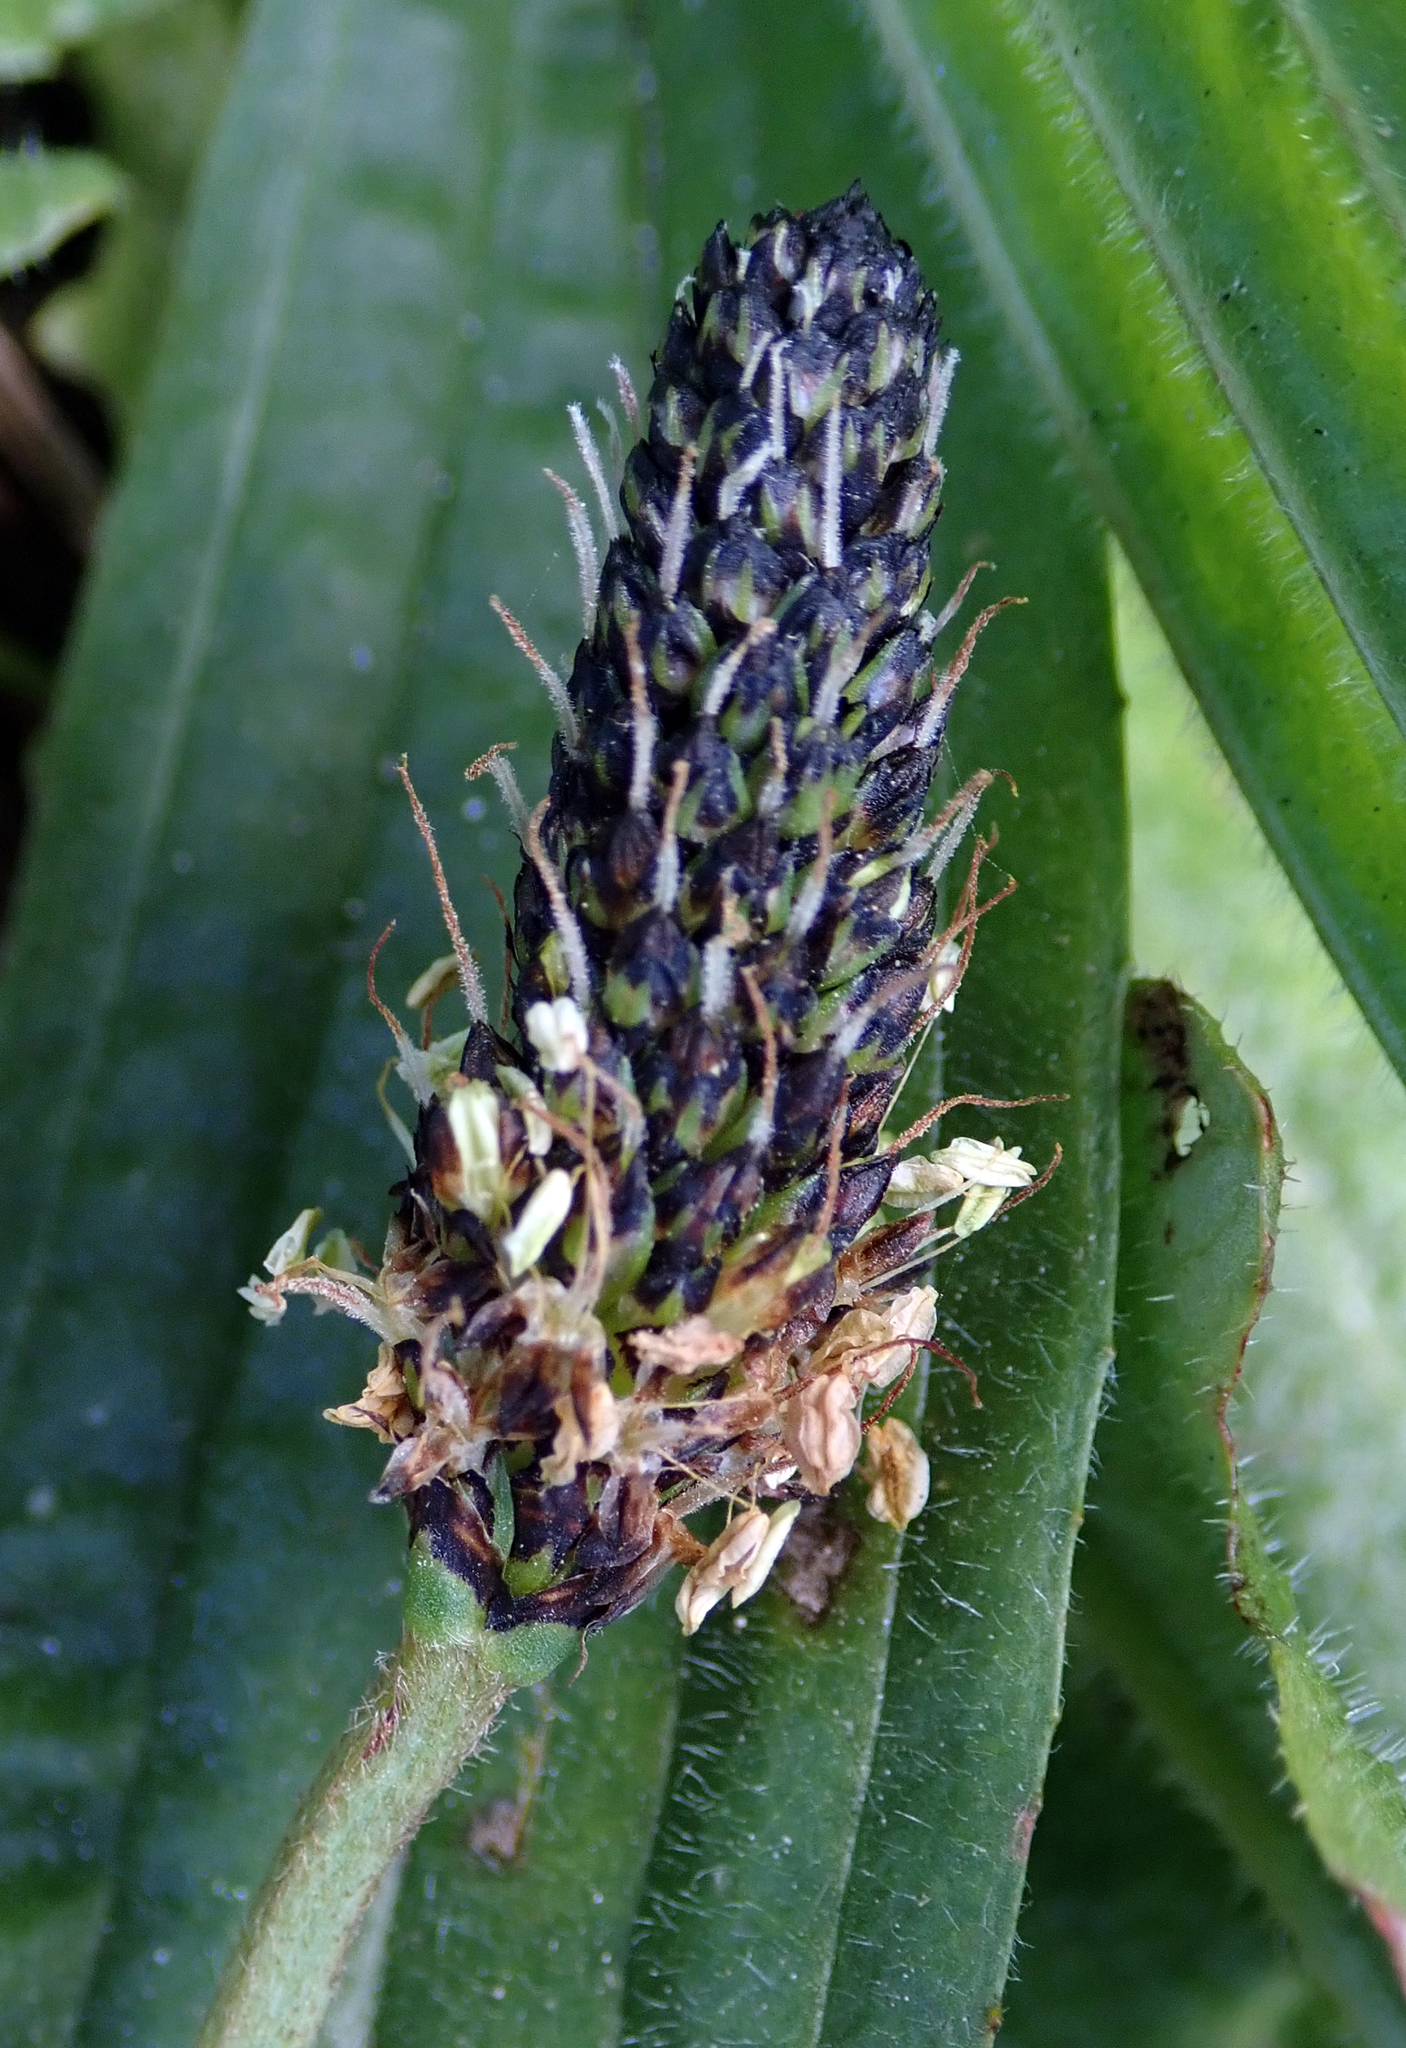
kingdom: Plantae
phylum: Tracheophyta
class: Magnoliopsida
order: Lamiales
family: Plantaginaceae
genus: Plantago
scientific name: Plantago lanceolata
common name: Ribwort plantain
